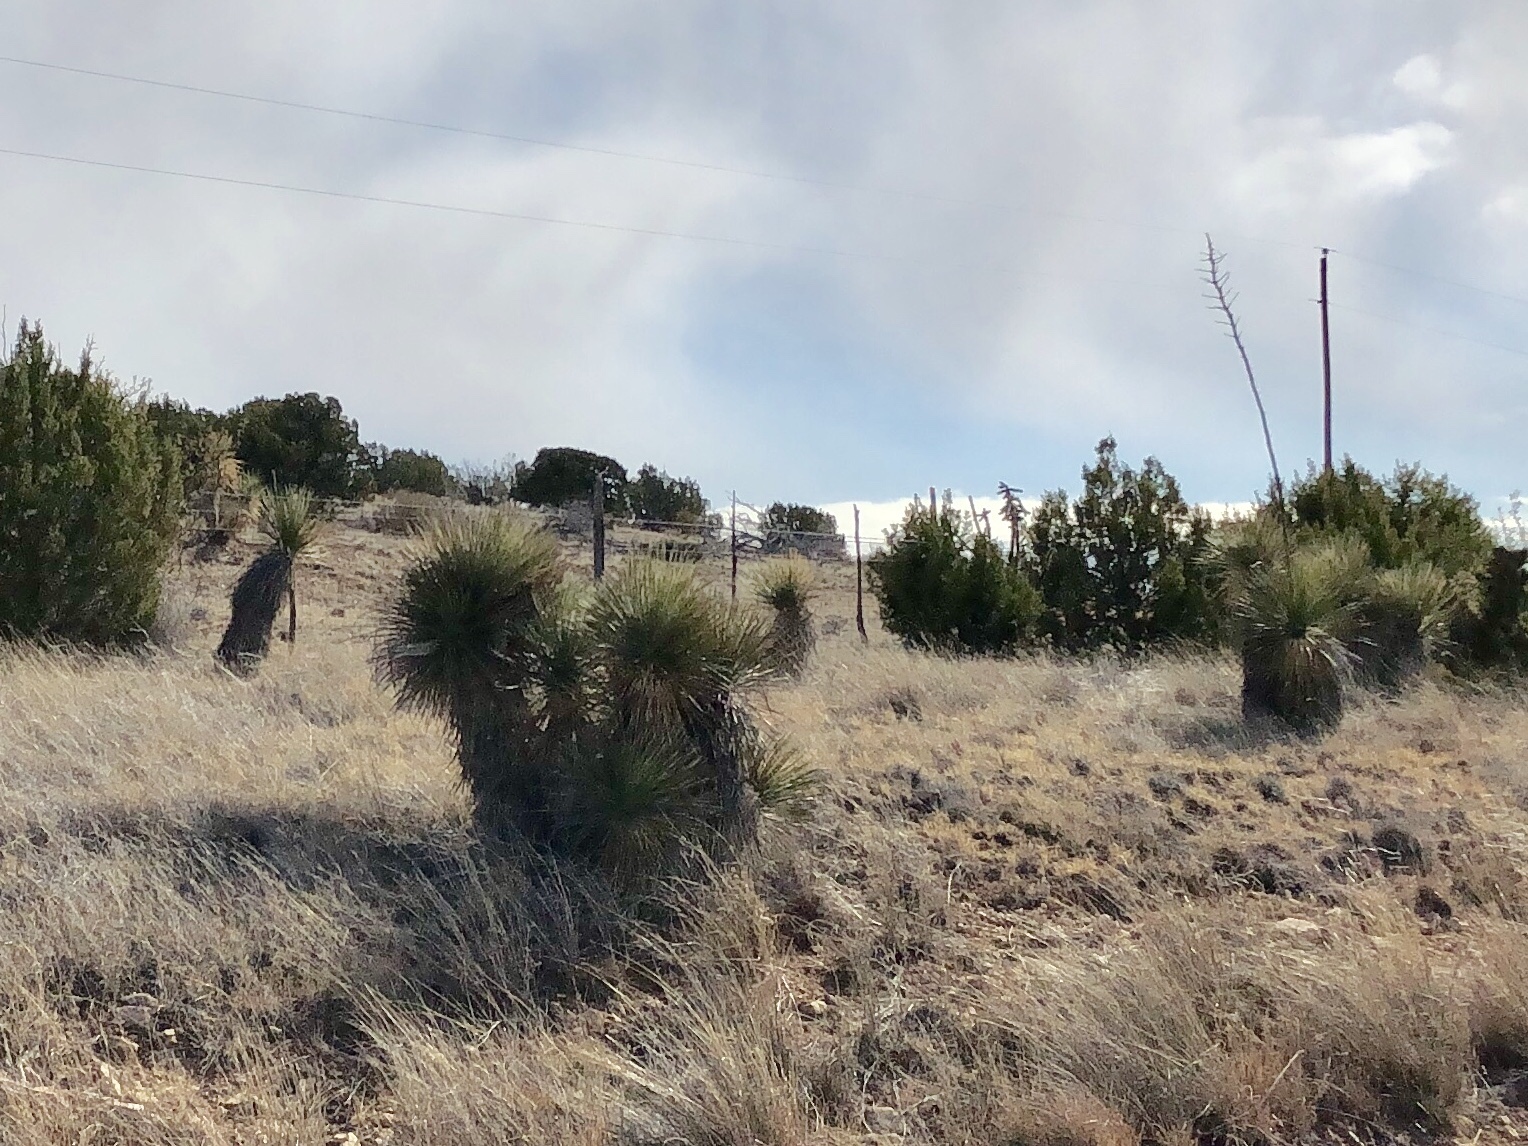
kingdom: Plantae
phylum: Tracheophyta
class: Liliopsida
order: Asparagales
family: Asparagaceae
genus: Yucca
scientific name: Yucca elata
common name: Palmella
